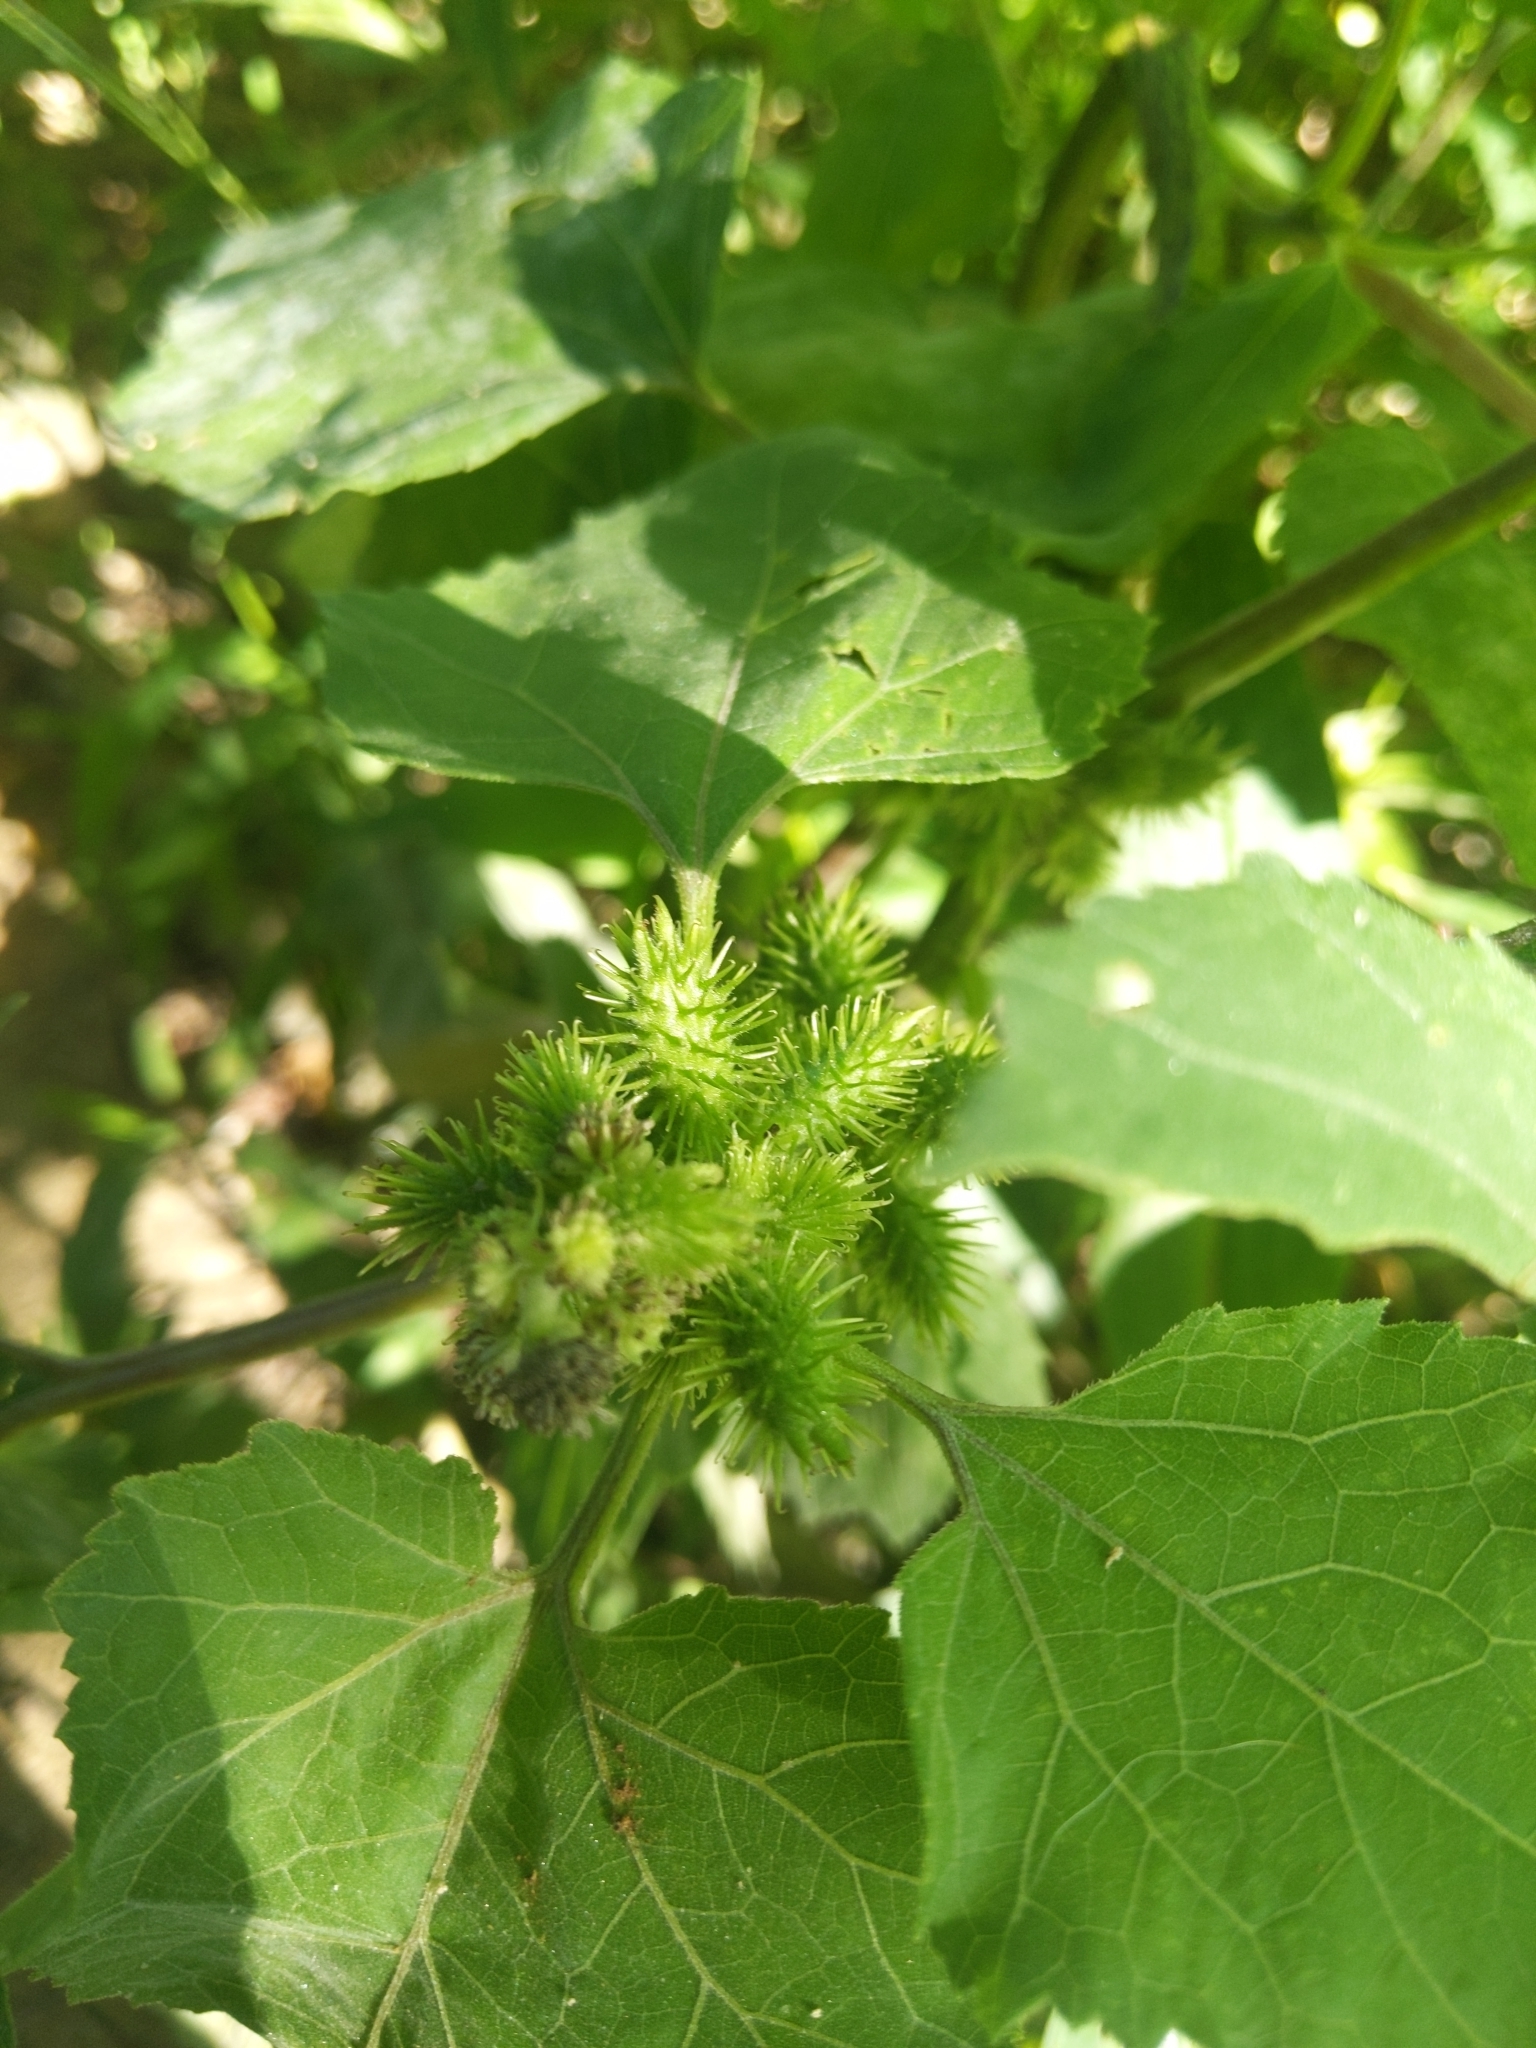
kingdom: Plantae
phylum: Tracheophyta
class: Magnoliopsida
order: Asterales
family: Asteraceae
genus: Xanthium
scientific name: Xanthium strumarium
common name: Rough cocklebur
